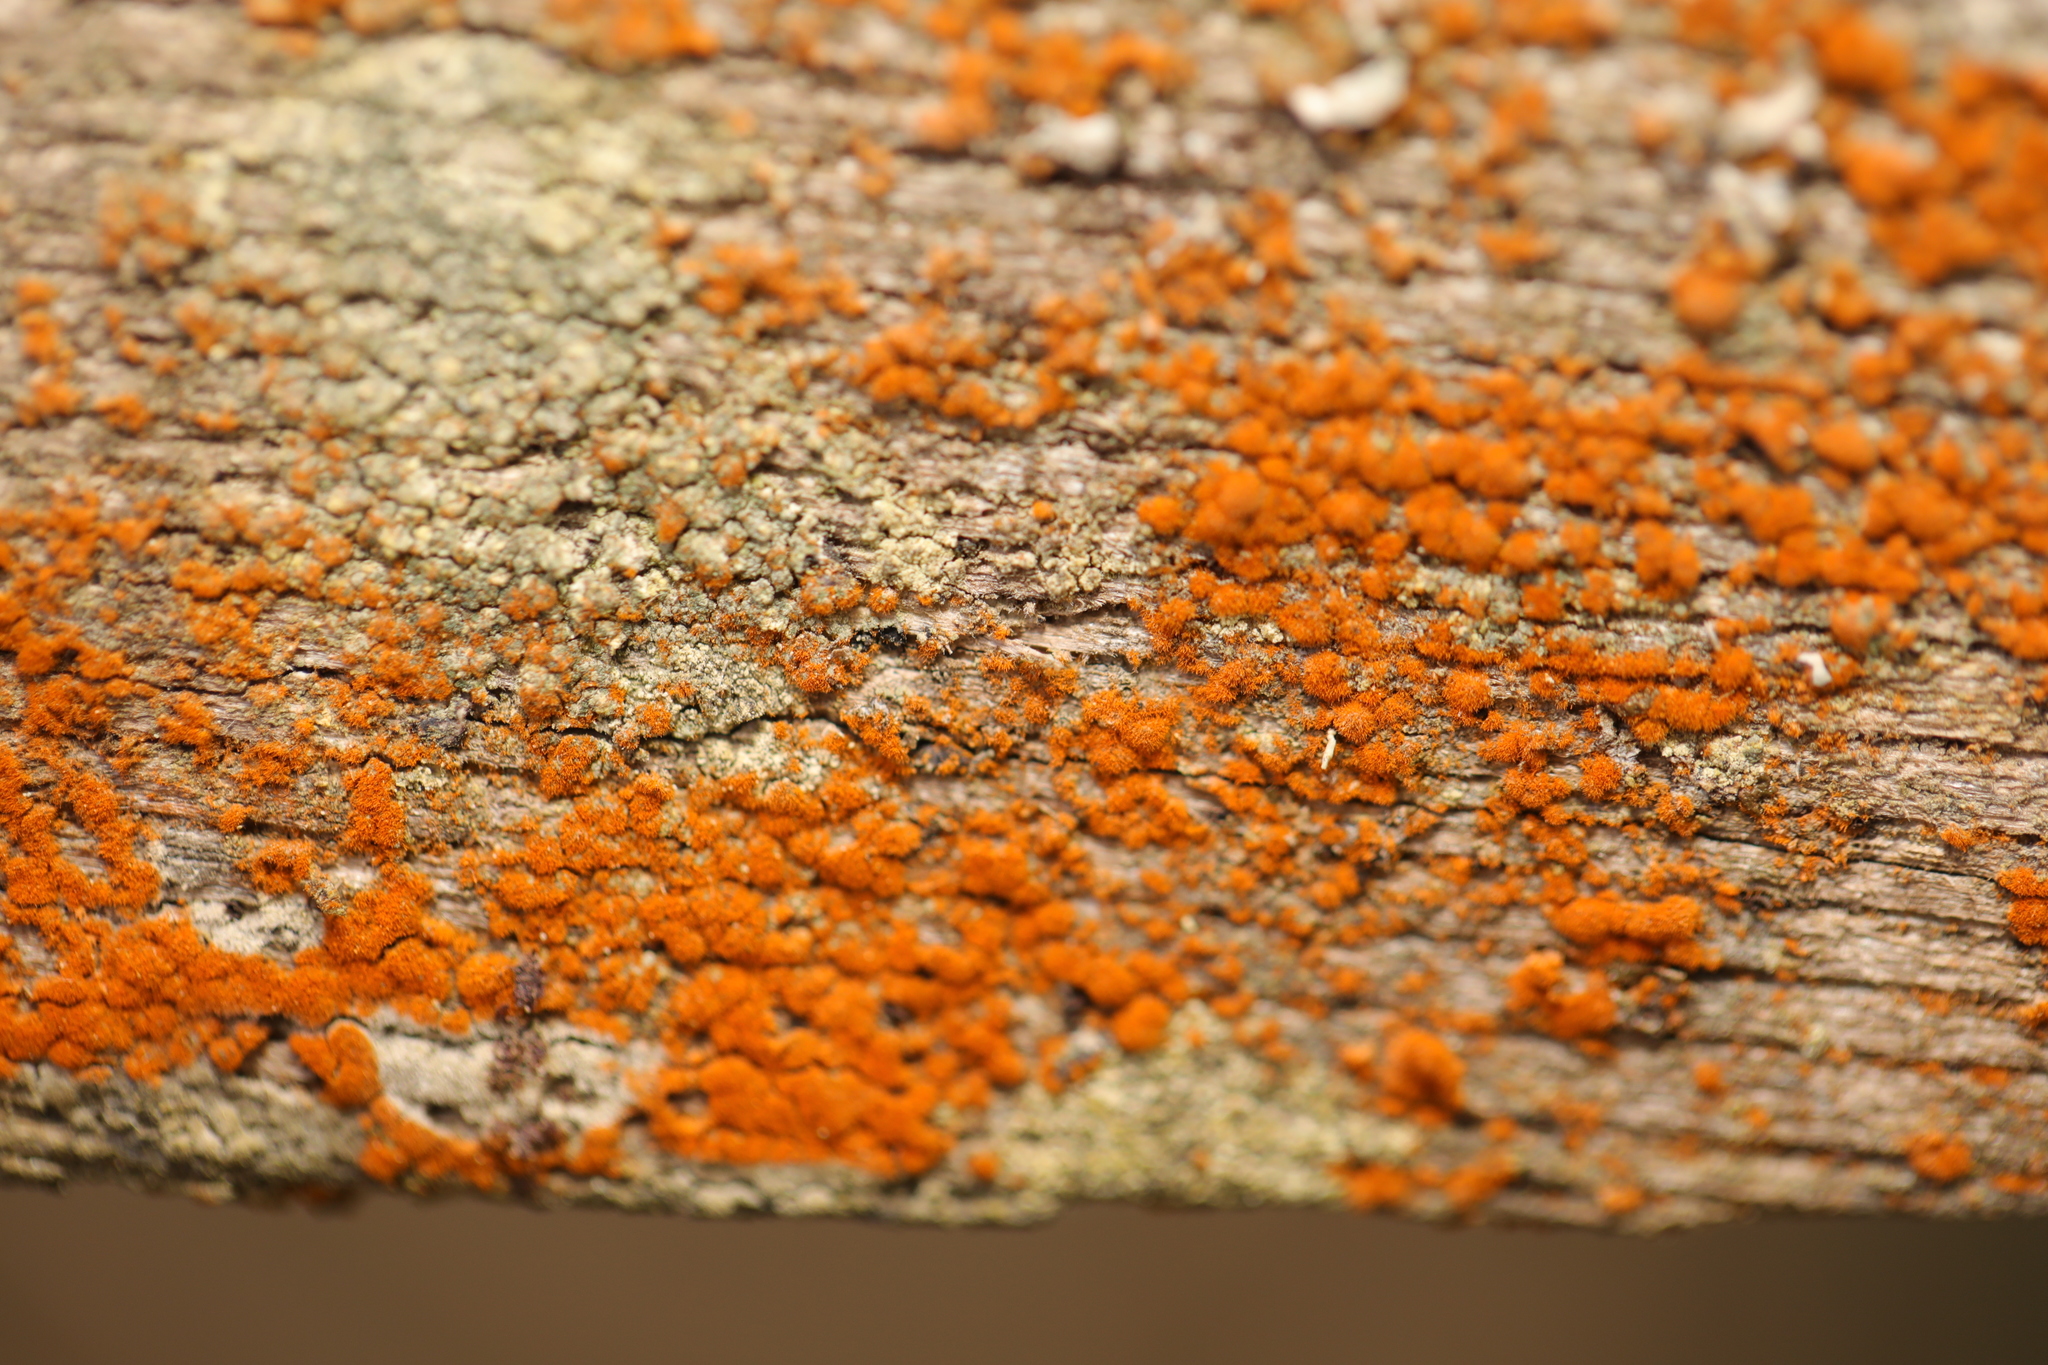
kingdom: Plantae
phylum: Chlorophyta
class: Ulvophyceae
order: Trentepohliales
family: Trentepohliaceae
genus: Trentepohlia
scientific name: Trentepohlia
